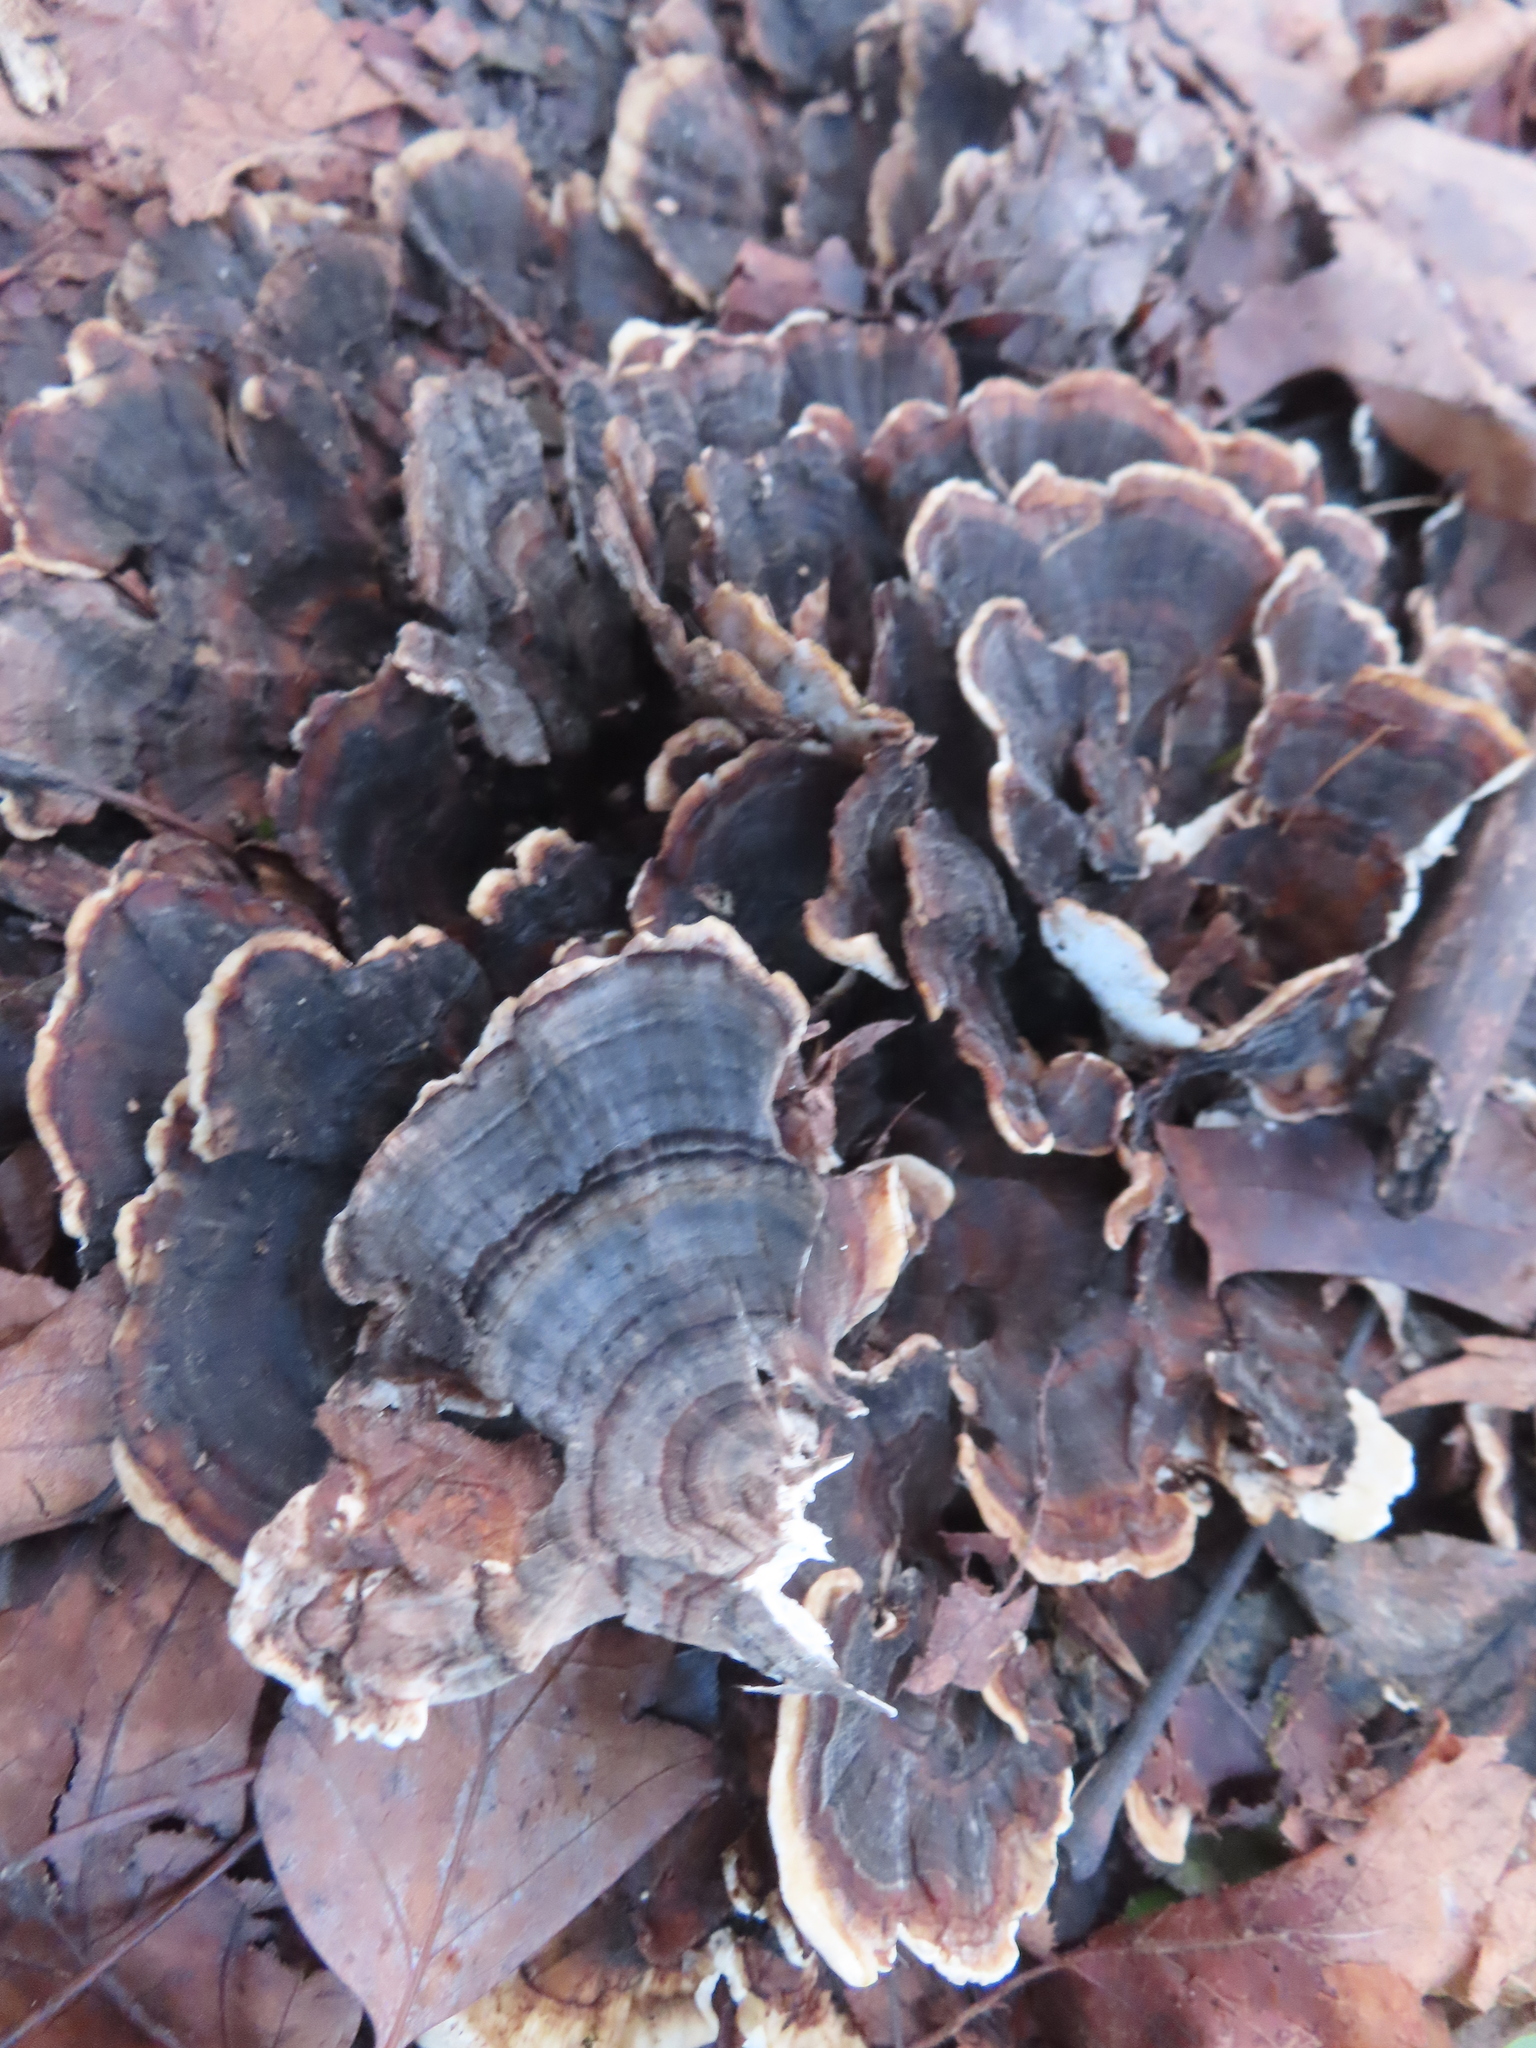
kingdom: Fungi
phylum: Basidiomycota
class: Agaricomycetes
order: Polyporales
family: Polyporaceae
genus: Trametes
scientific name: Trametes versicolor
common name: Turkeytail
